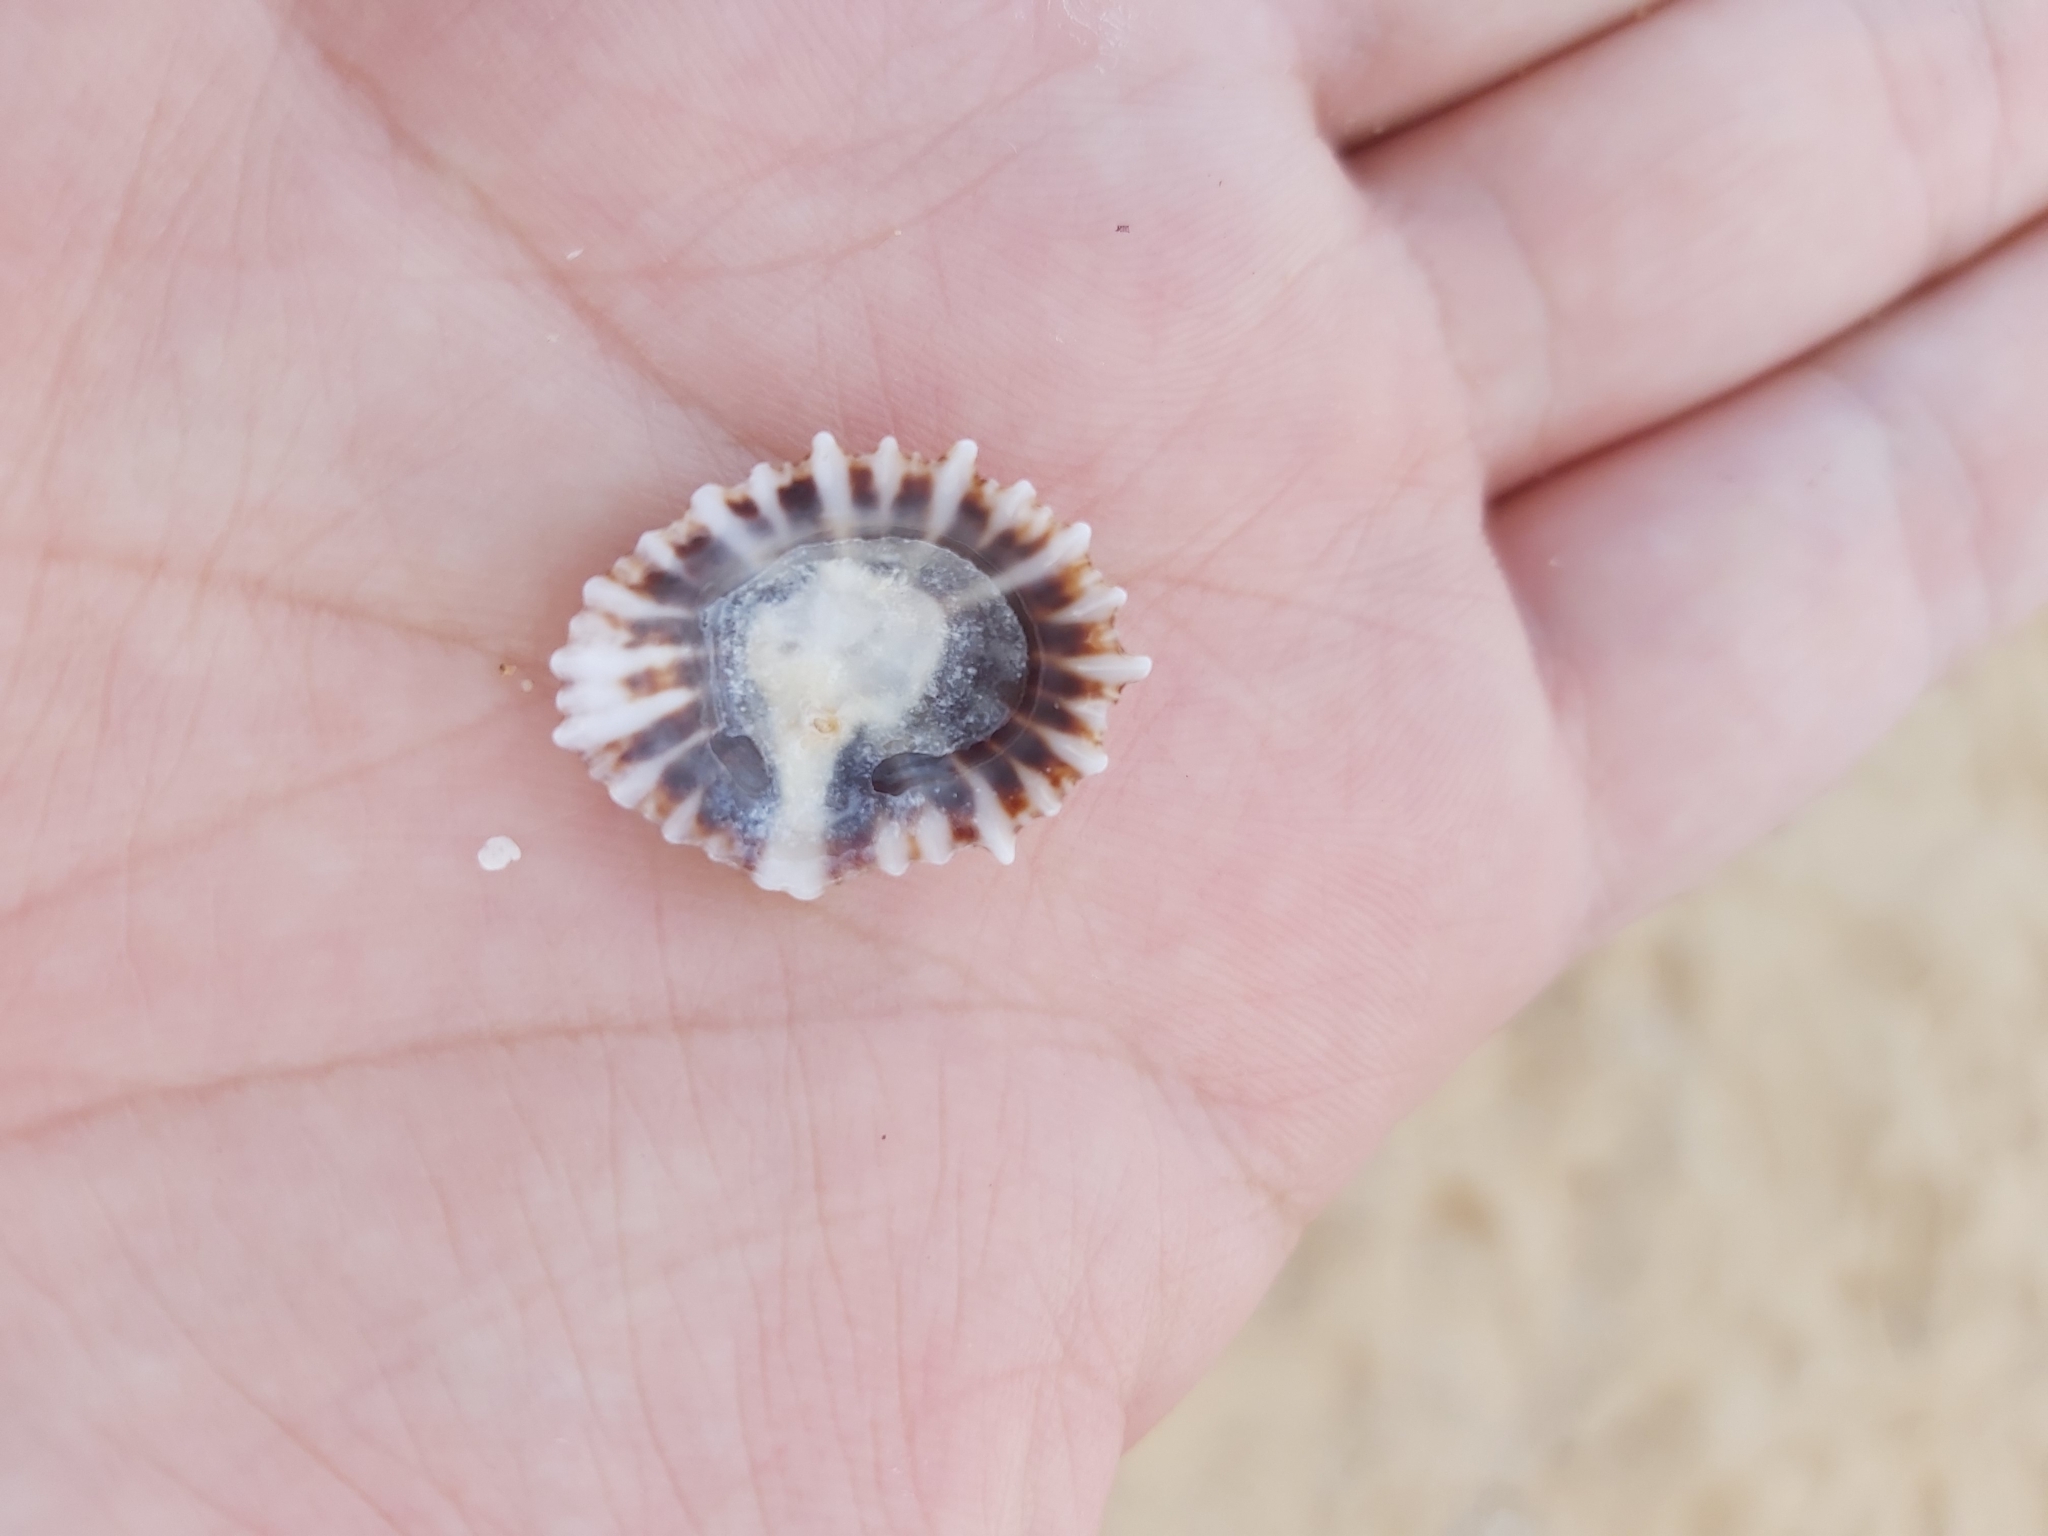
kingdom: Animalia
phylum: Mollusca
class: Gastropoda
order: Siphonariida
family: Siphonariidae
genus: Siphonaria
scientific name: Siphonaria denticulata
